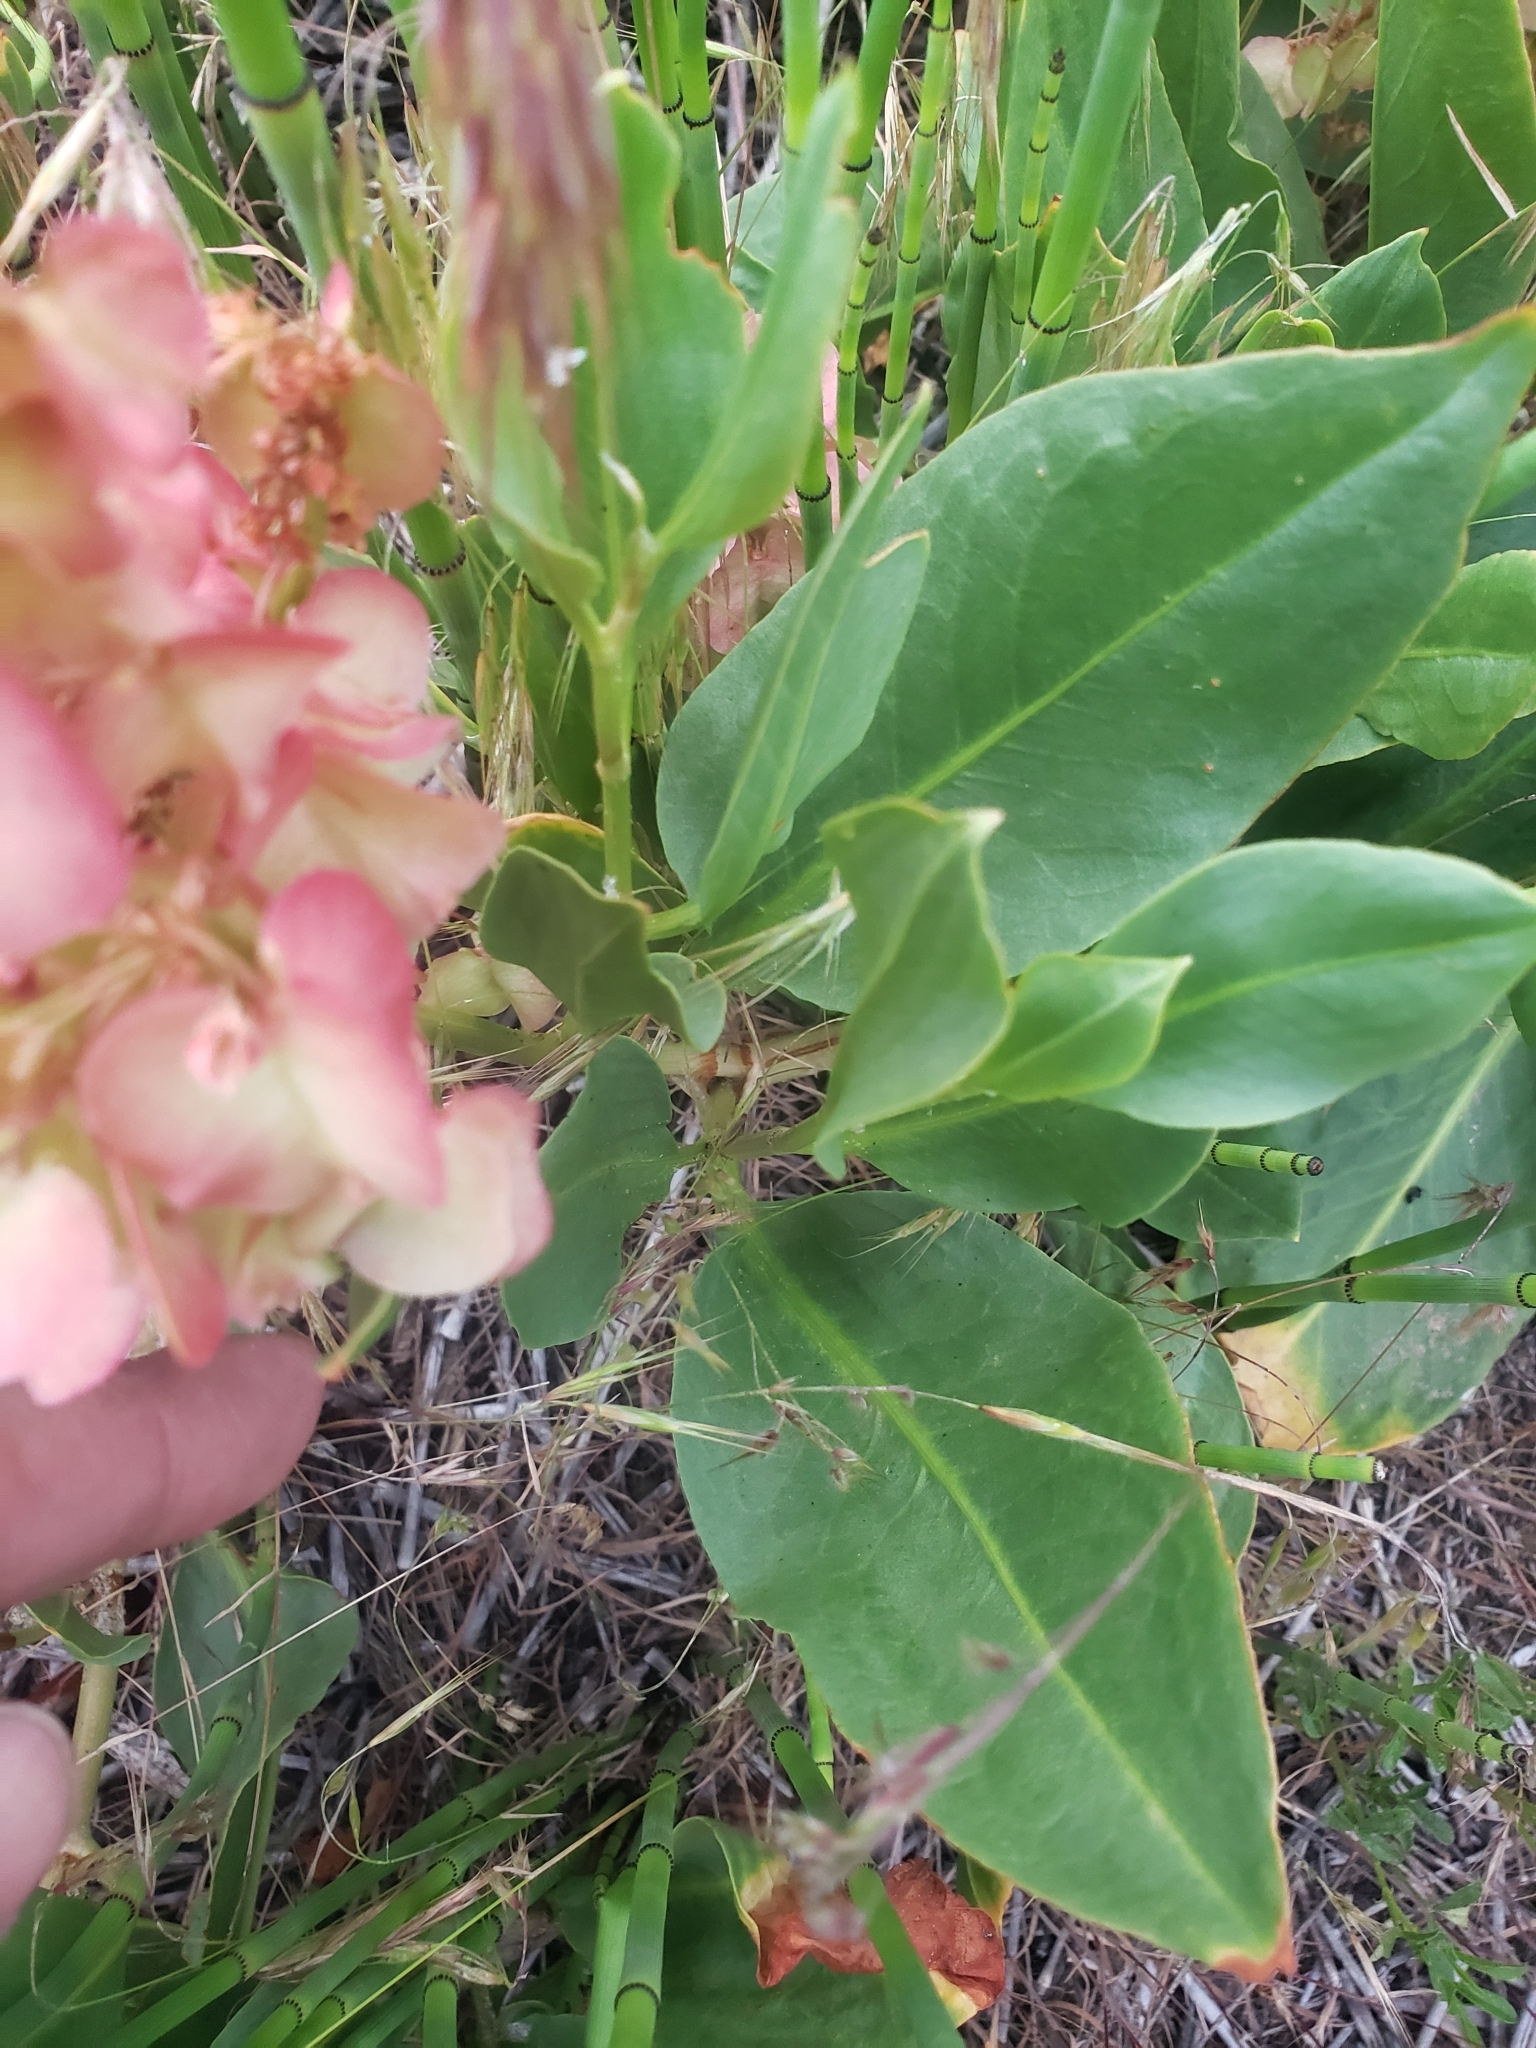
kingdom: Plantae
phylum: Tracheophyta
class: Magnoliopsida
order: Caryophyllales
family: Polygonaceae
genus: Rumex
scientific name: Rumex venosus
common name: Winged dock
